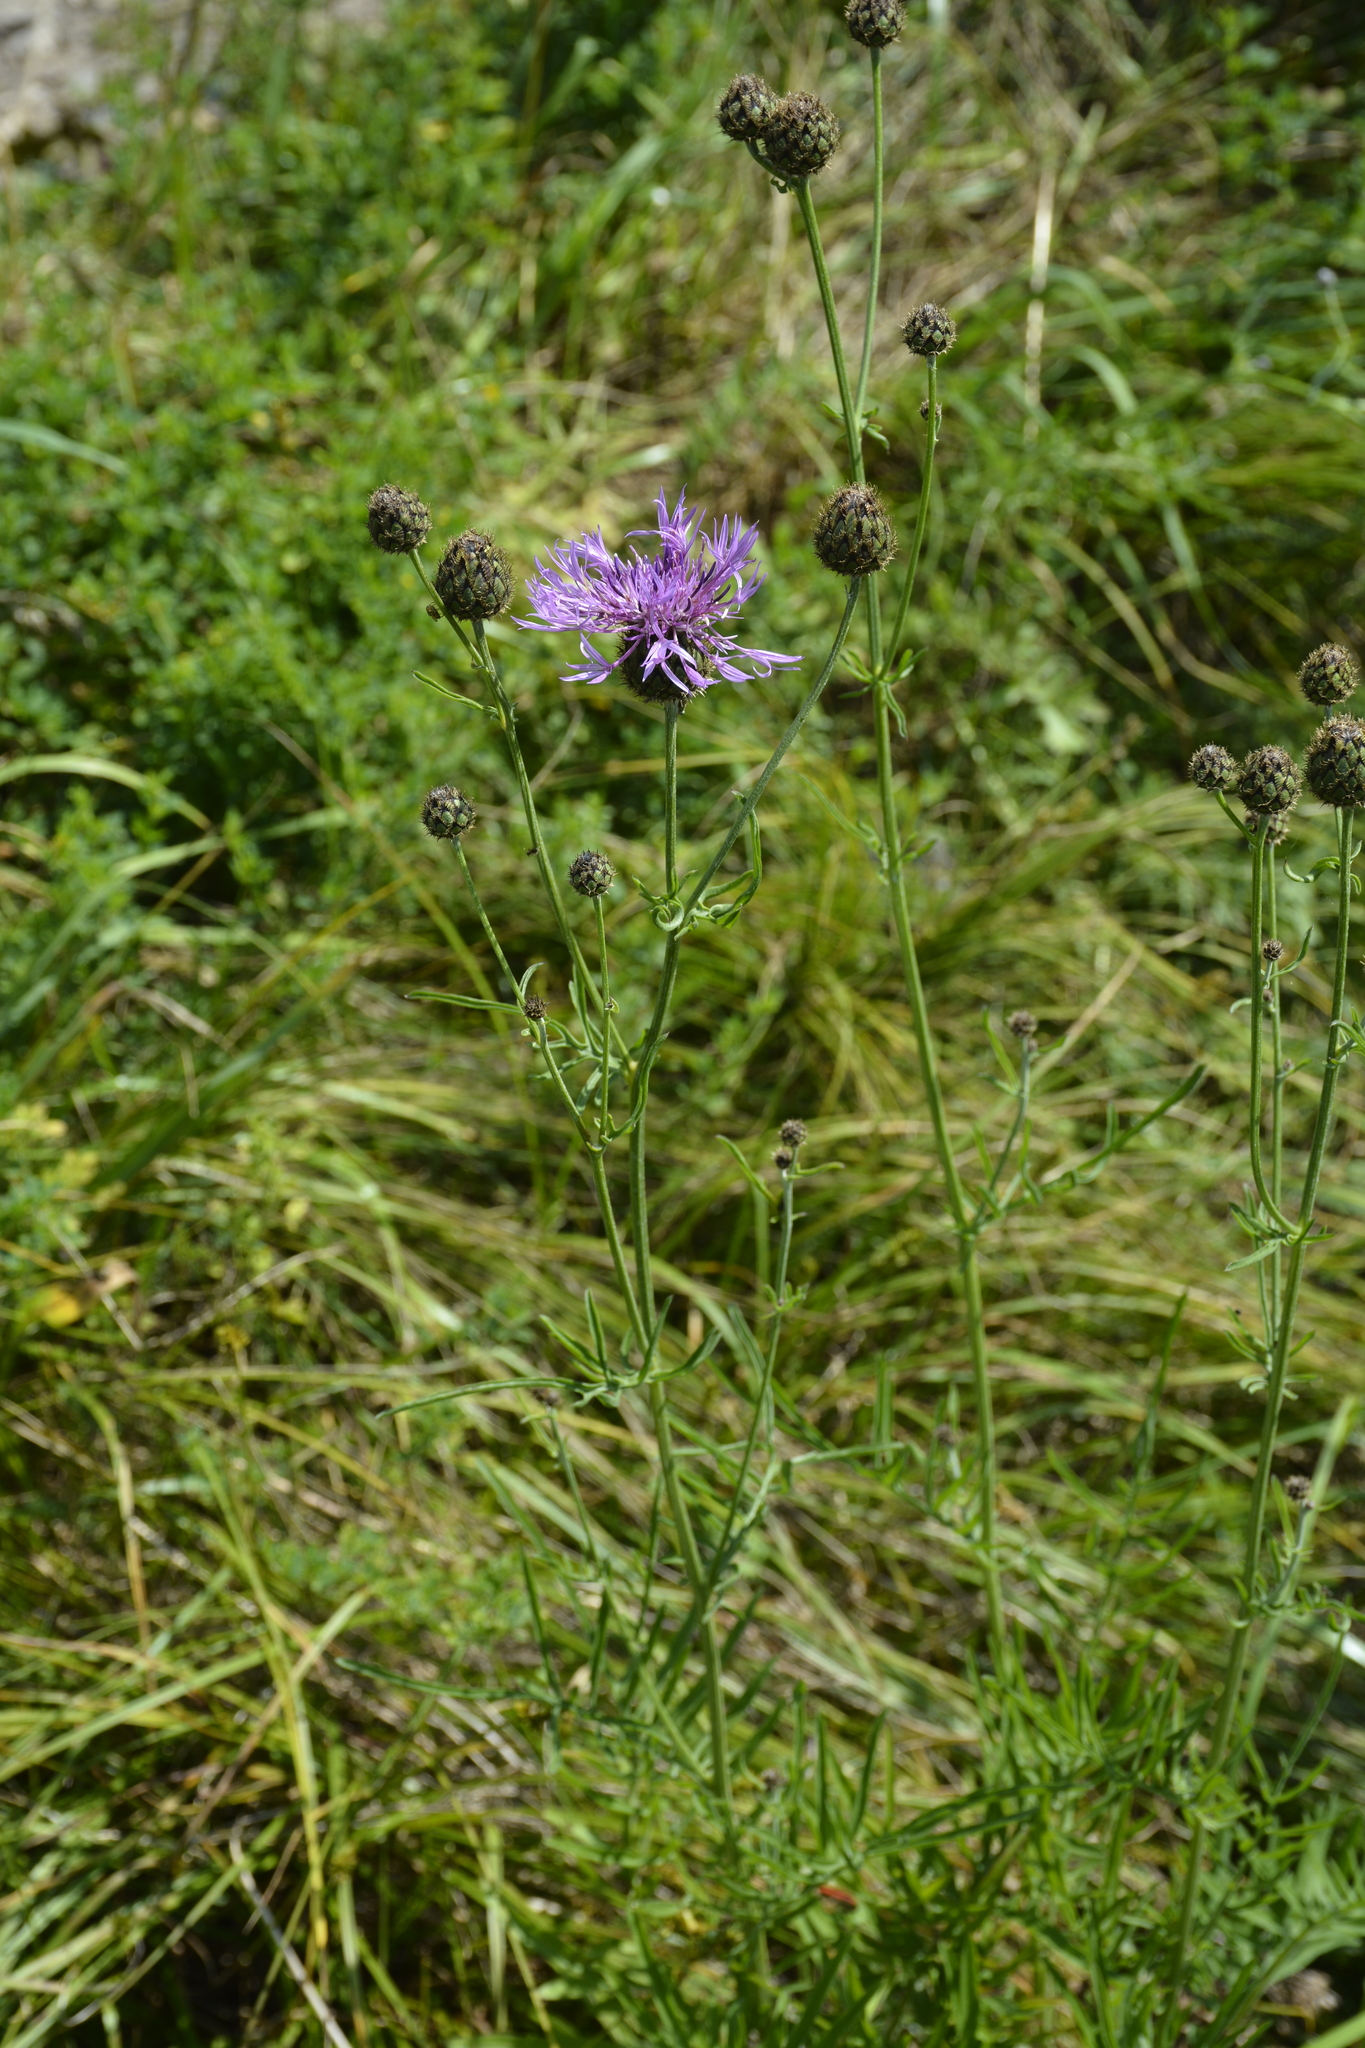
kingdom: Plantae
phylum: Tracheophyta
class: Magnoliopsida
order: Asterales
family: Asteraceae
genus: Centaurea
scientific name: Centaurea scabiosa
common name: Greater knapweed
